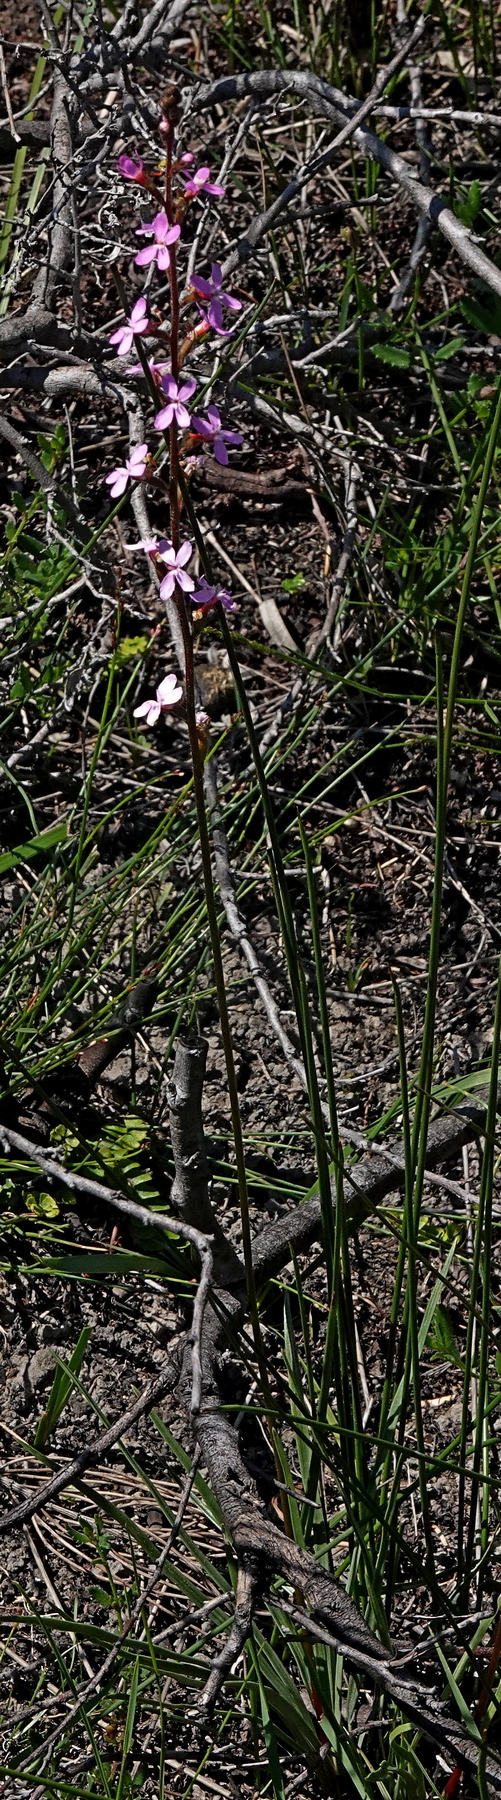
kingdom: Plantae
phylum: Tracheophyta
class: Magnoliopsida
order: Asterales
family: Stylidiaceae
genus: Stylidium
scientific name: Stylidium armeria
